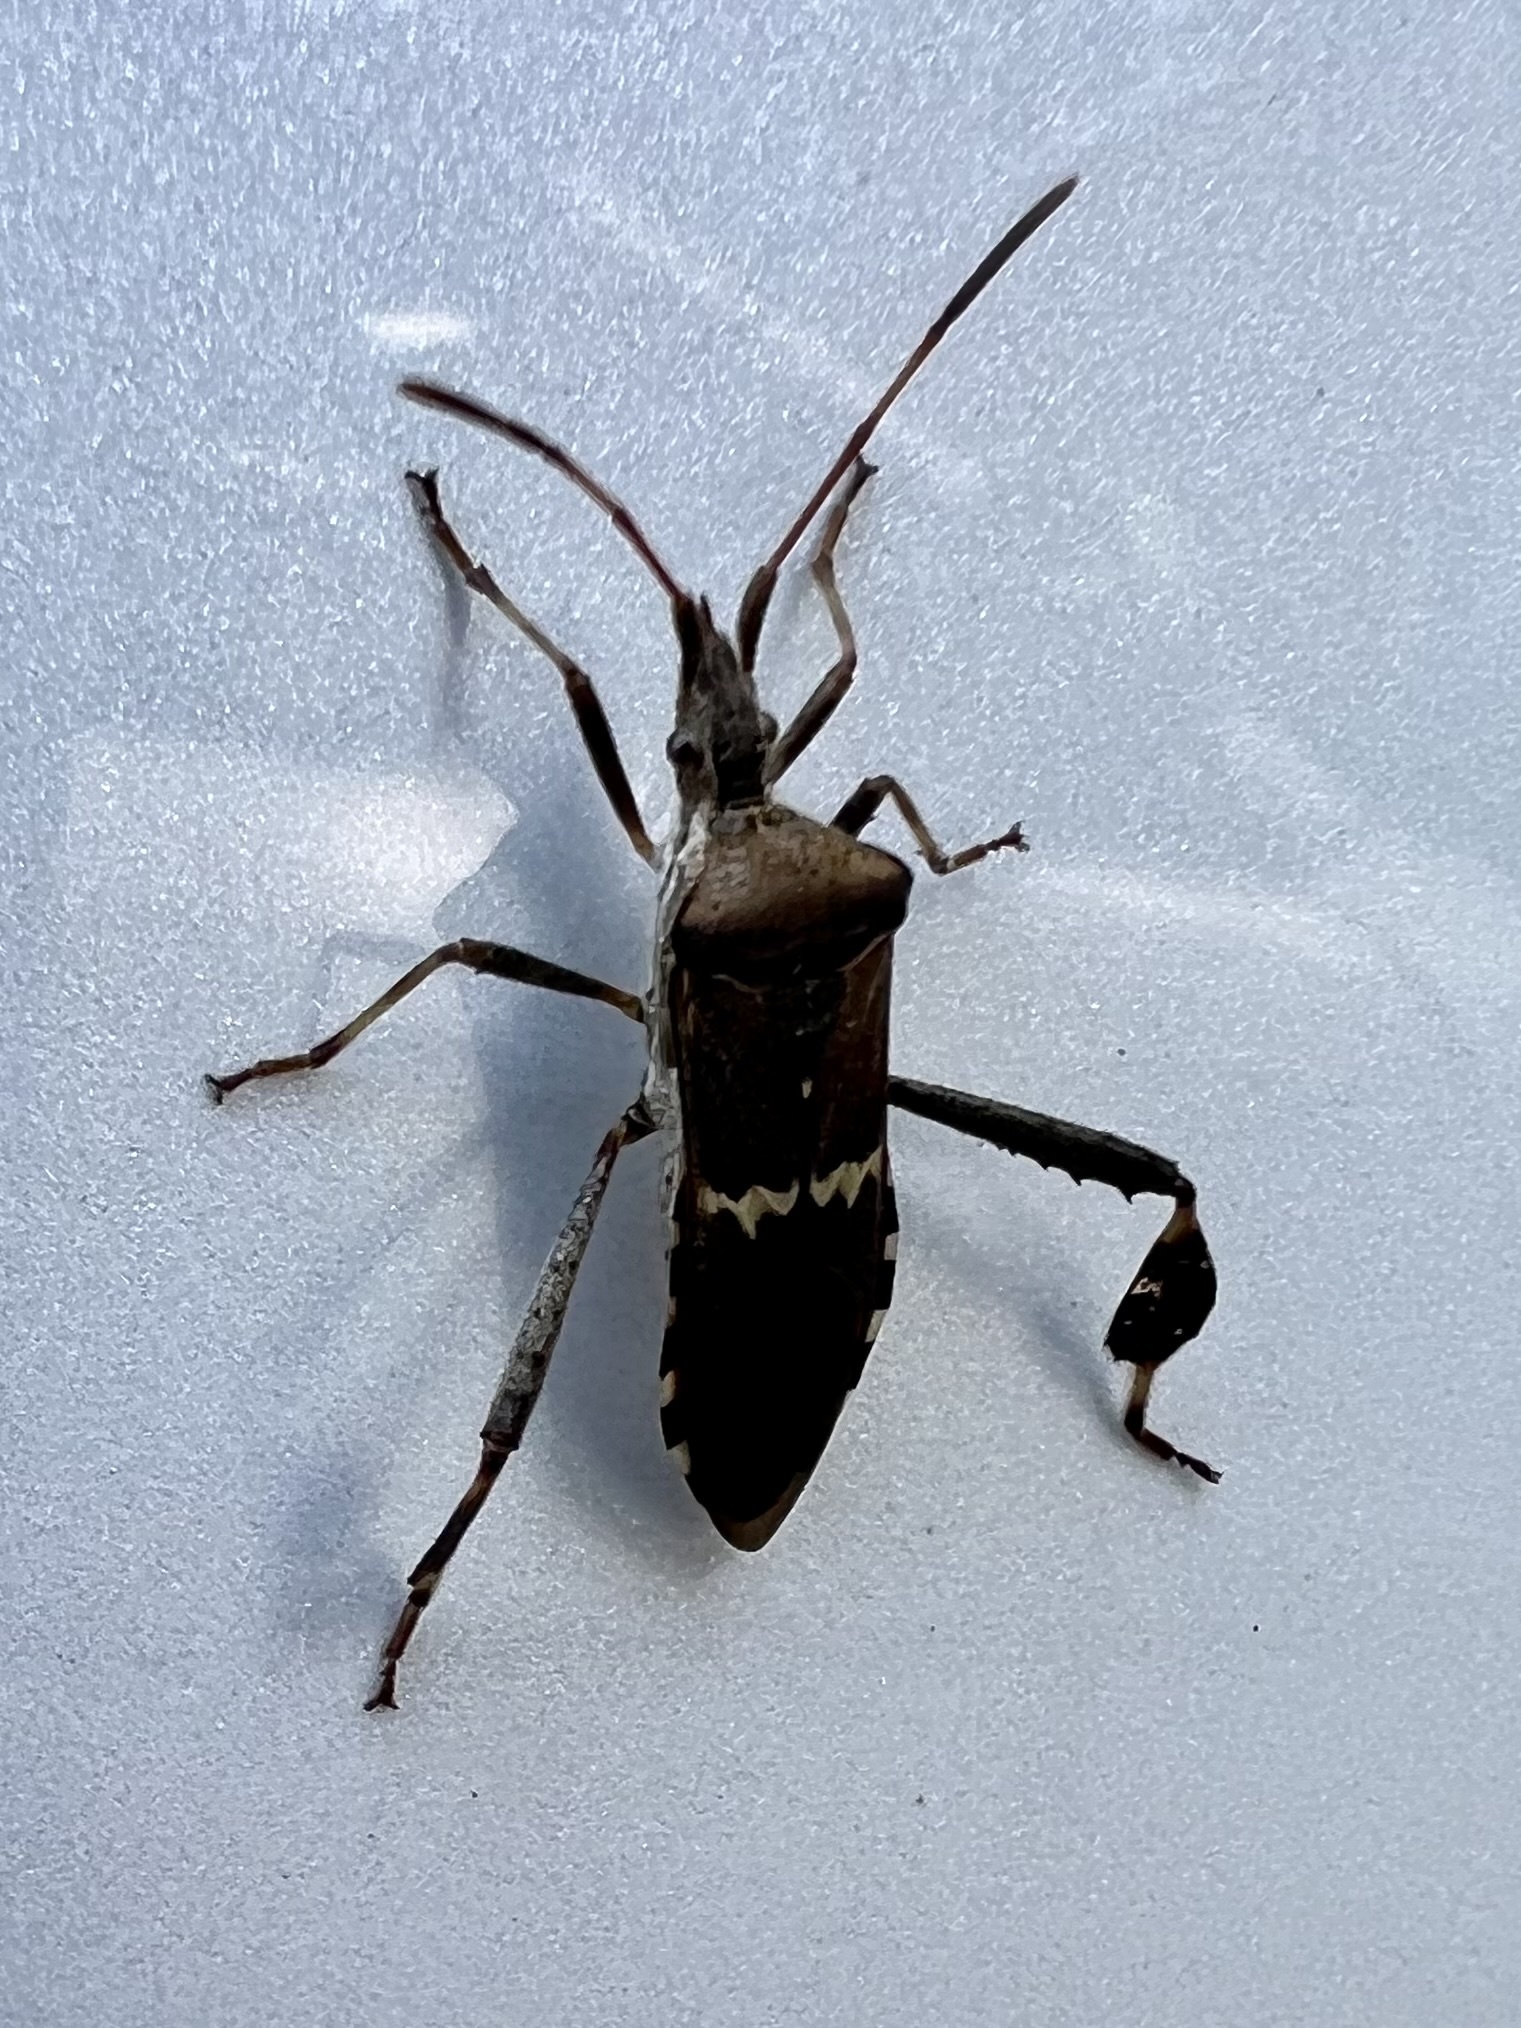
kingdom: Animalia
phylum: Arthropoda
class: Insecta
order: Hemiptera
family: Coreidae
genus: Leptoglossus
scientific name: Leptoglossus clypealis
